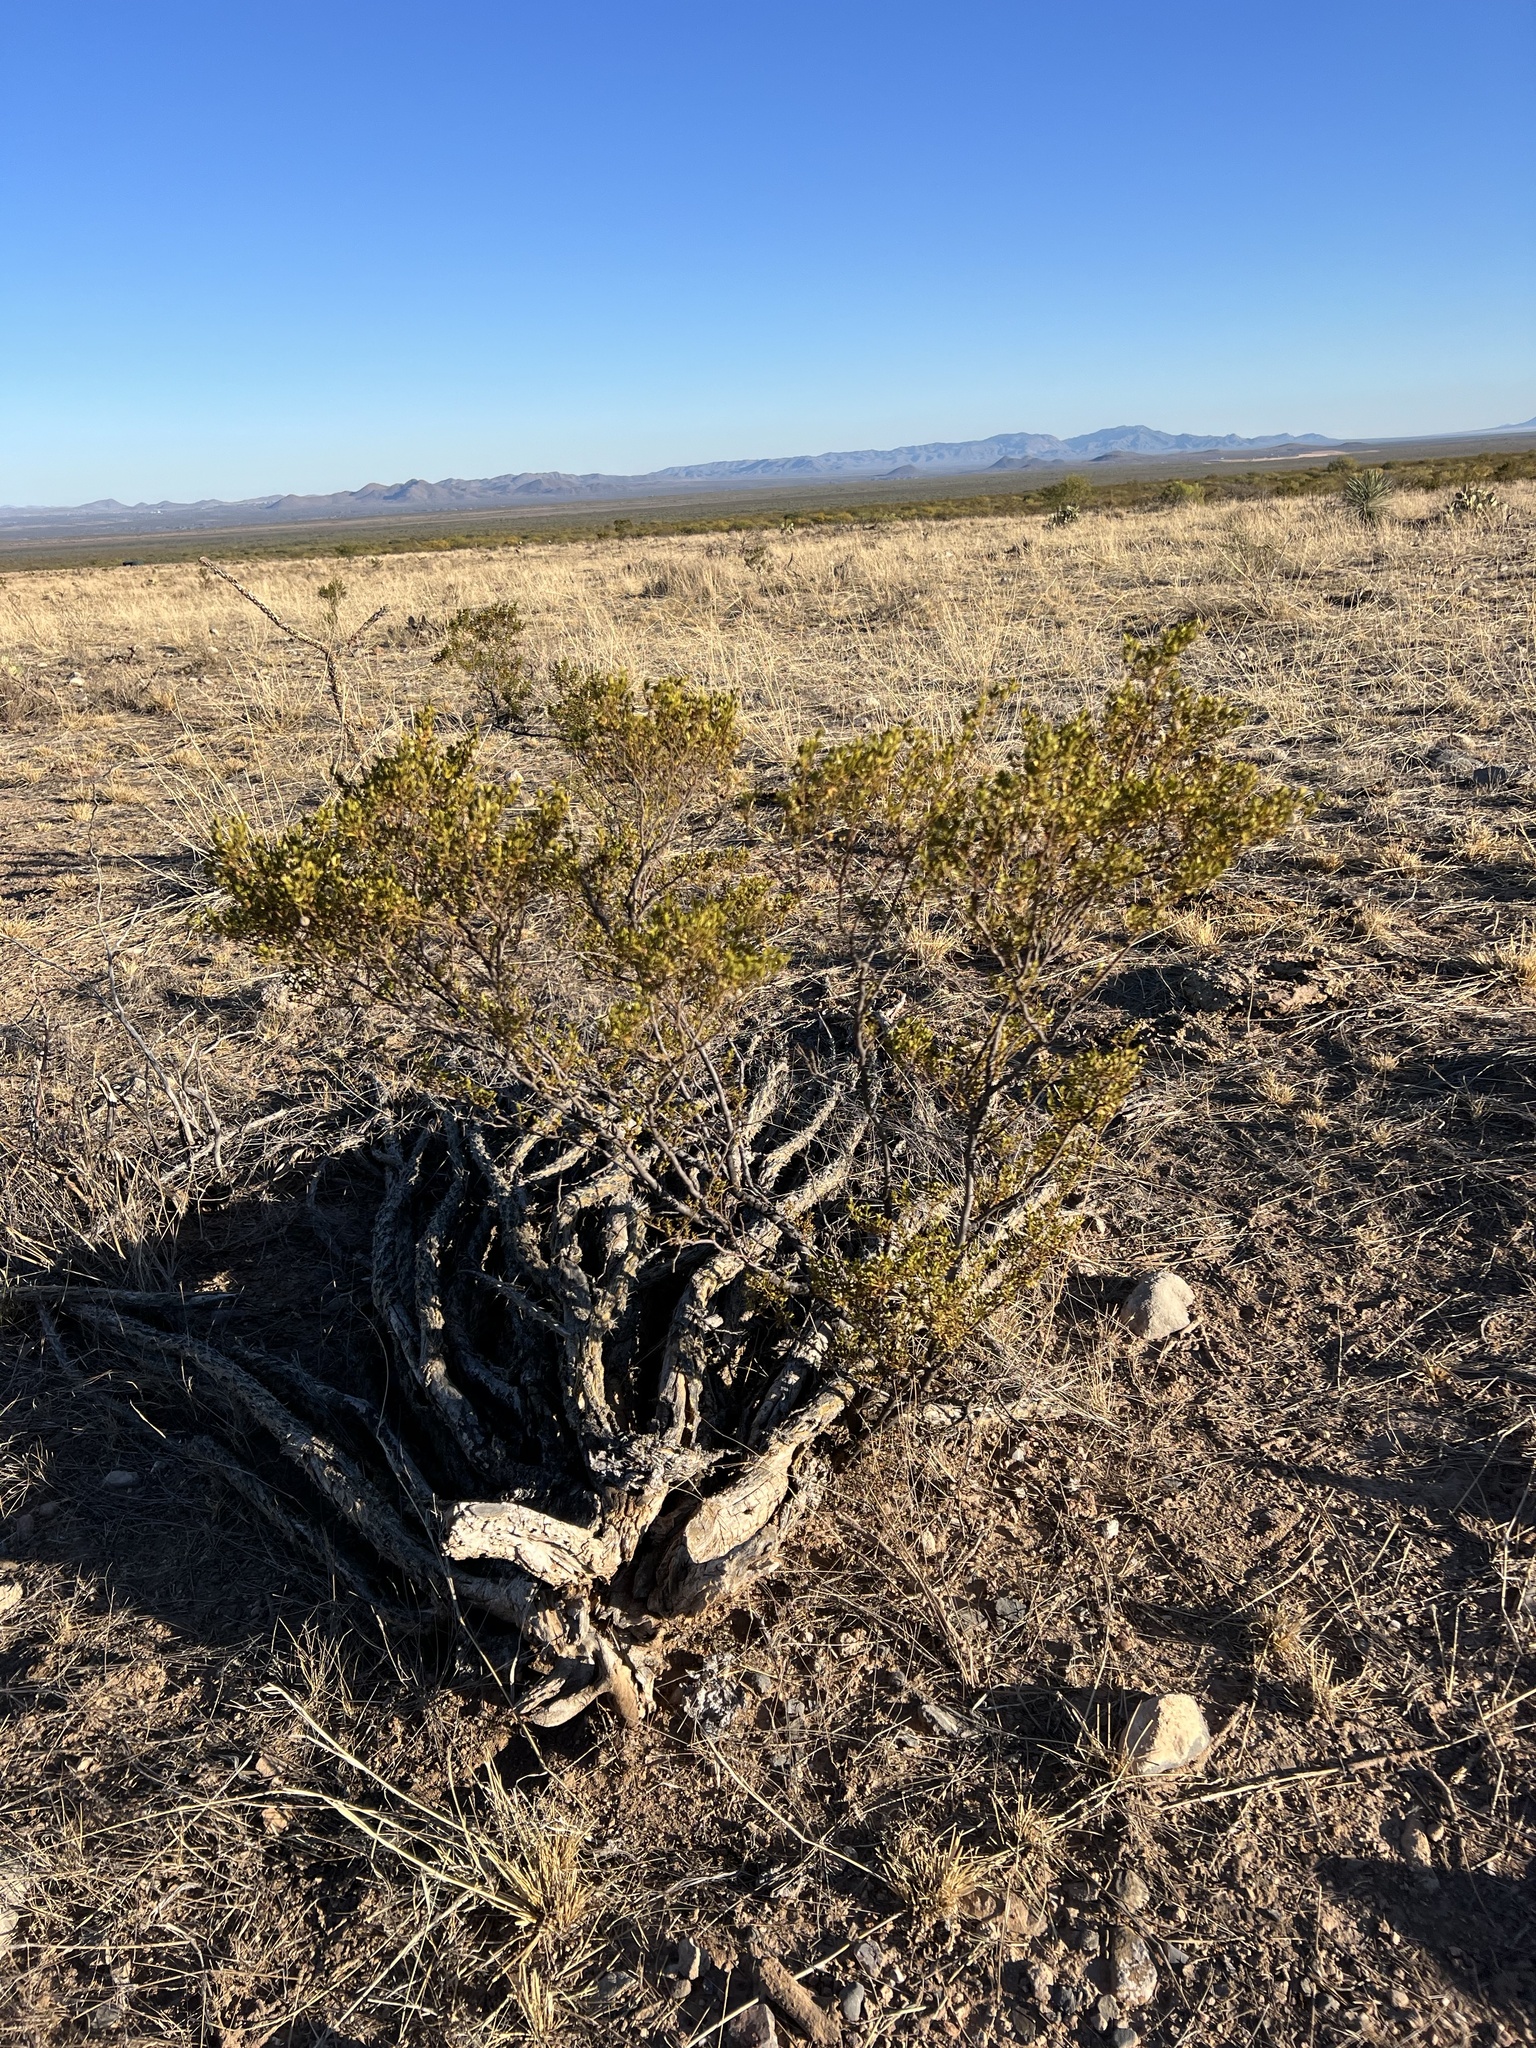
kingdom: Plantae
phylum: Tracheophyta
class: Magnoliopsida
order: Zygophyllales
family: Zygophyllaceae
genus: Larrea
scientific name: Larrea tridentata
